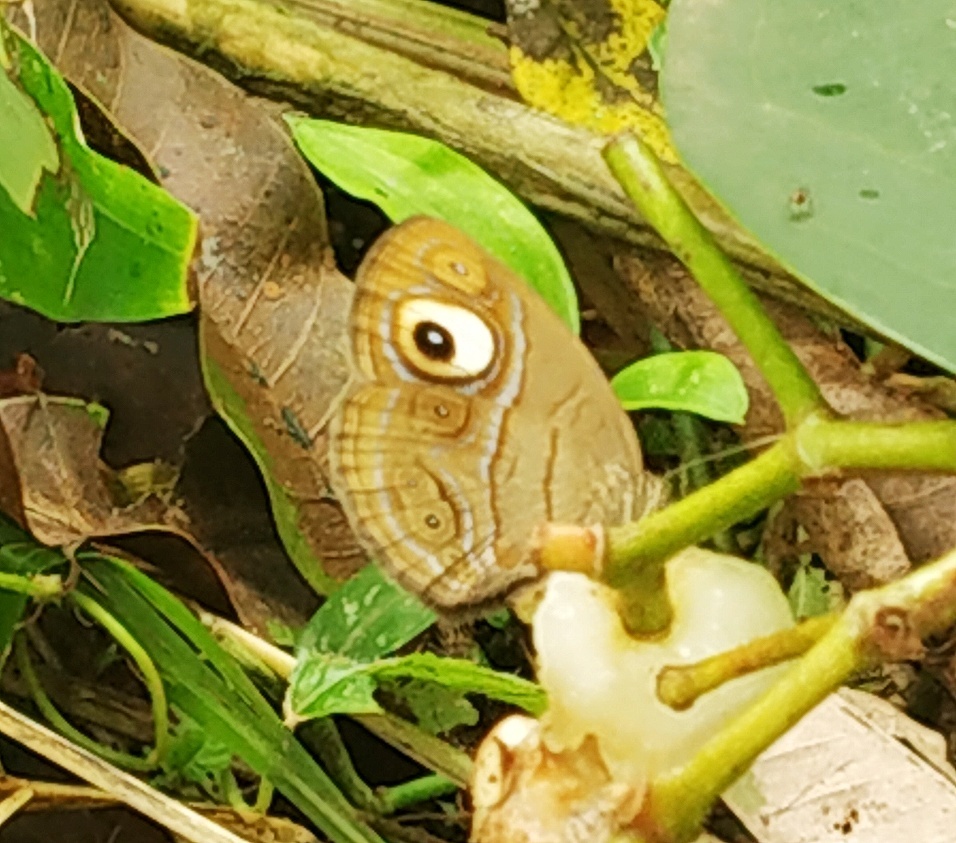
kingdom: Animalia
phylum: Arthropoda
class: Insecta
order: Lepidoptera
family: Nymphalidae
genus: Mycalesis
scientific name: Mycalesis patnia
